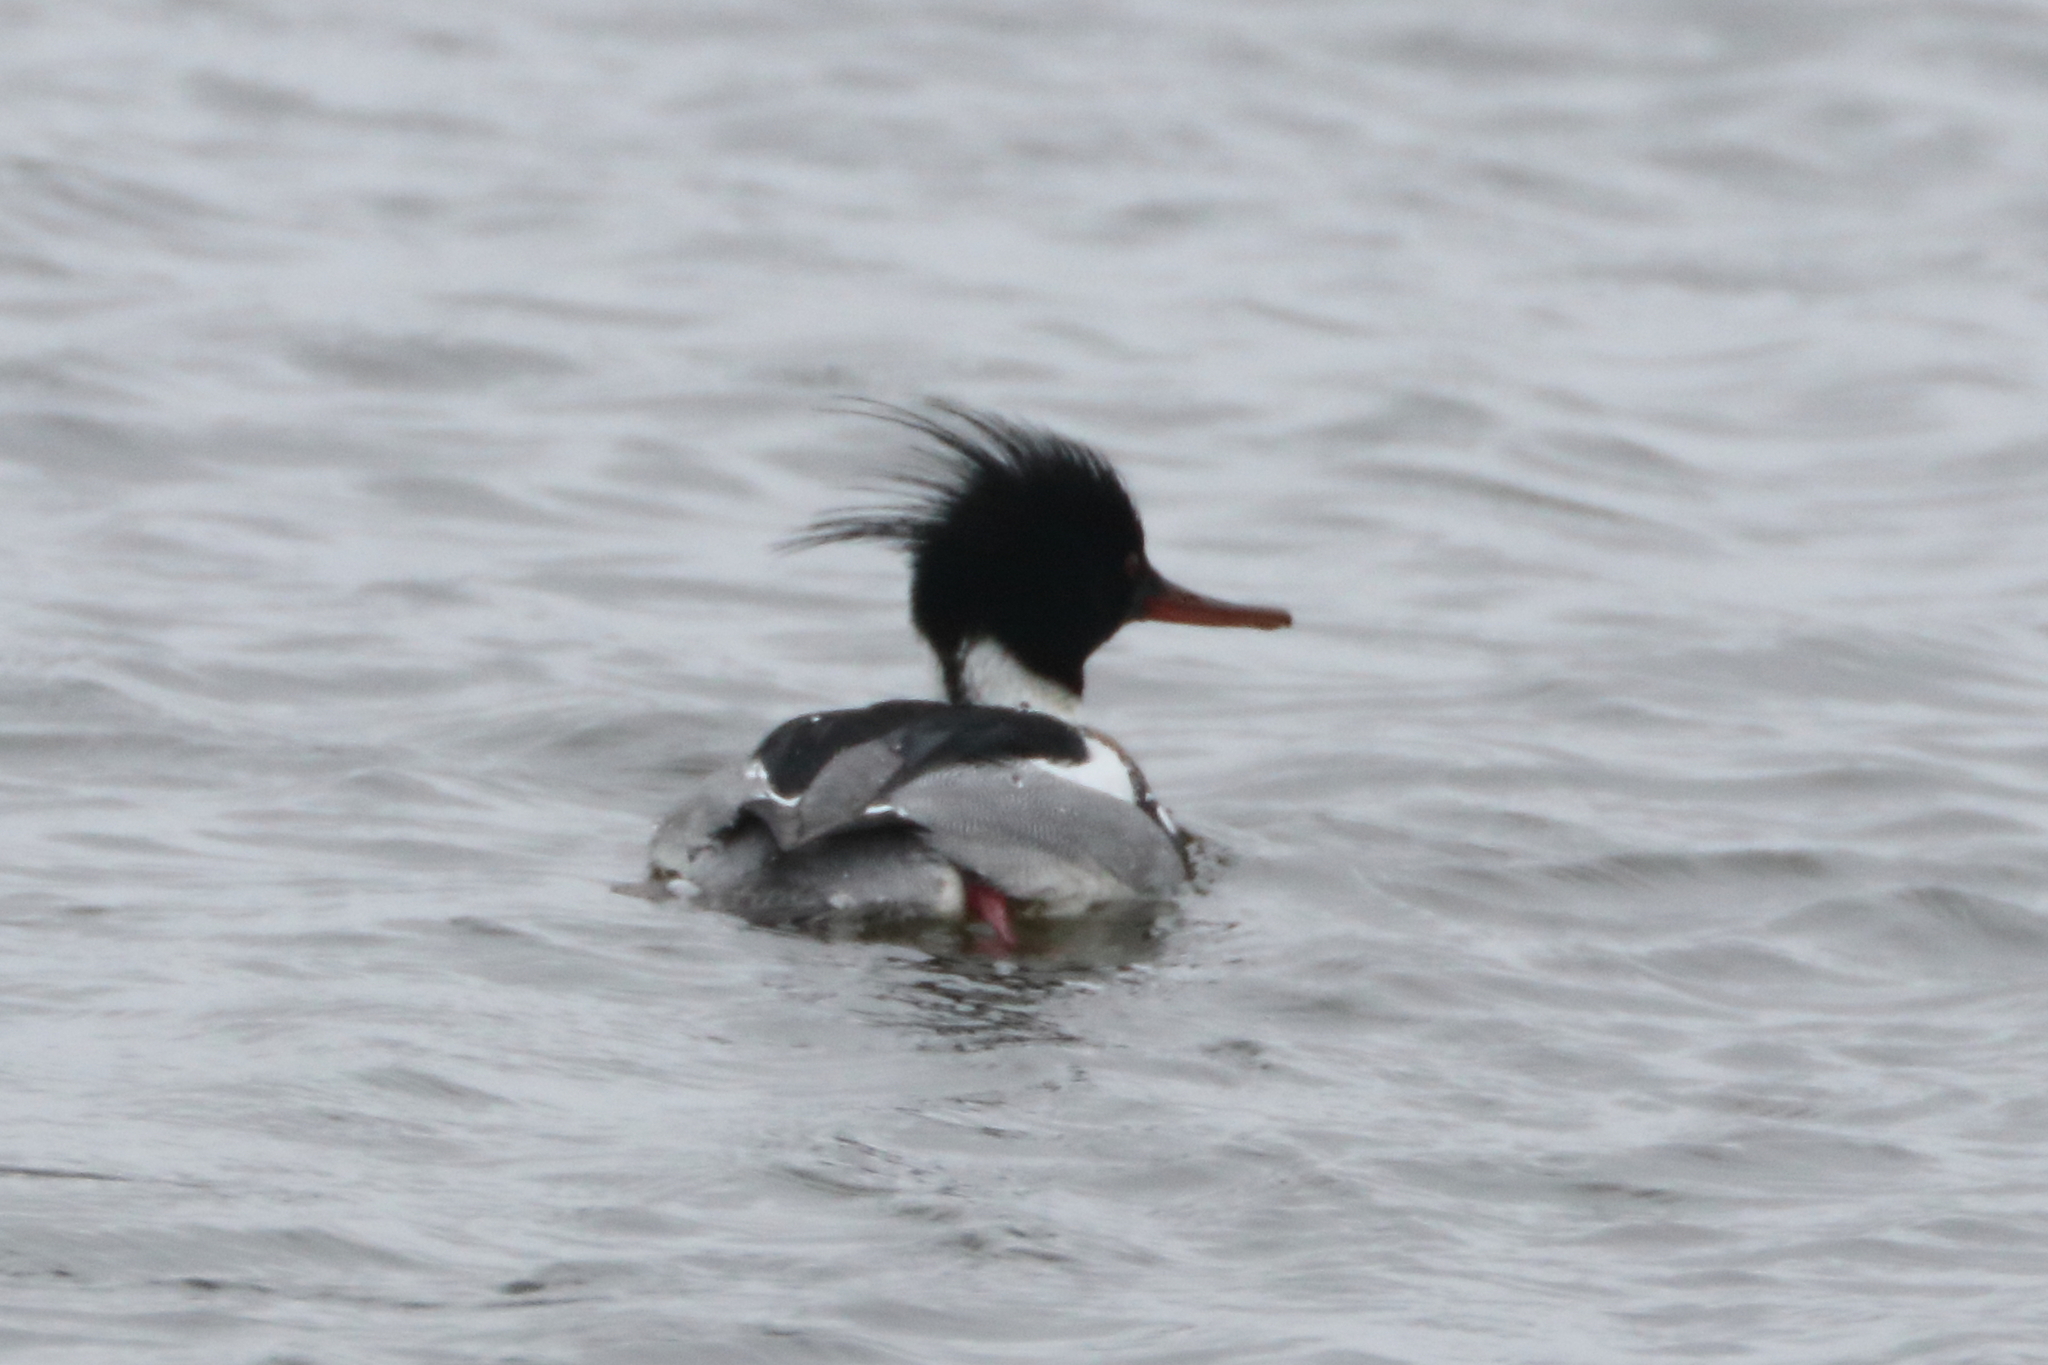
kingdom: Animalia
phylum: Chordata
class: Aves
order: Anseriformes
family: Anatidae
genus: Mergus
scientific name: Mergus serrator
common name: Red-breasted merganser
